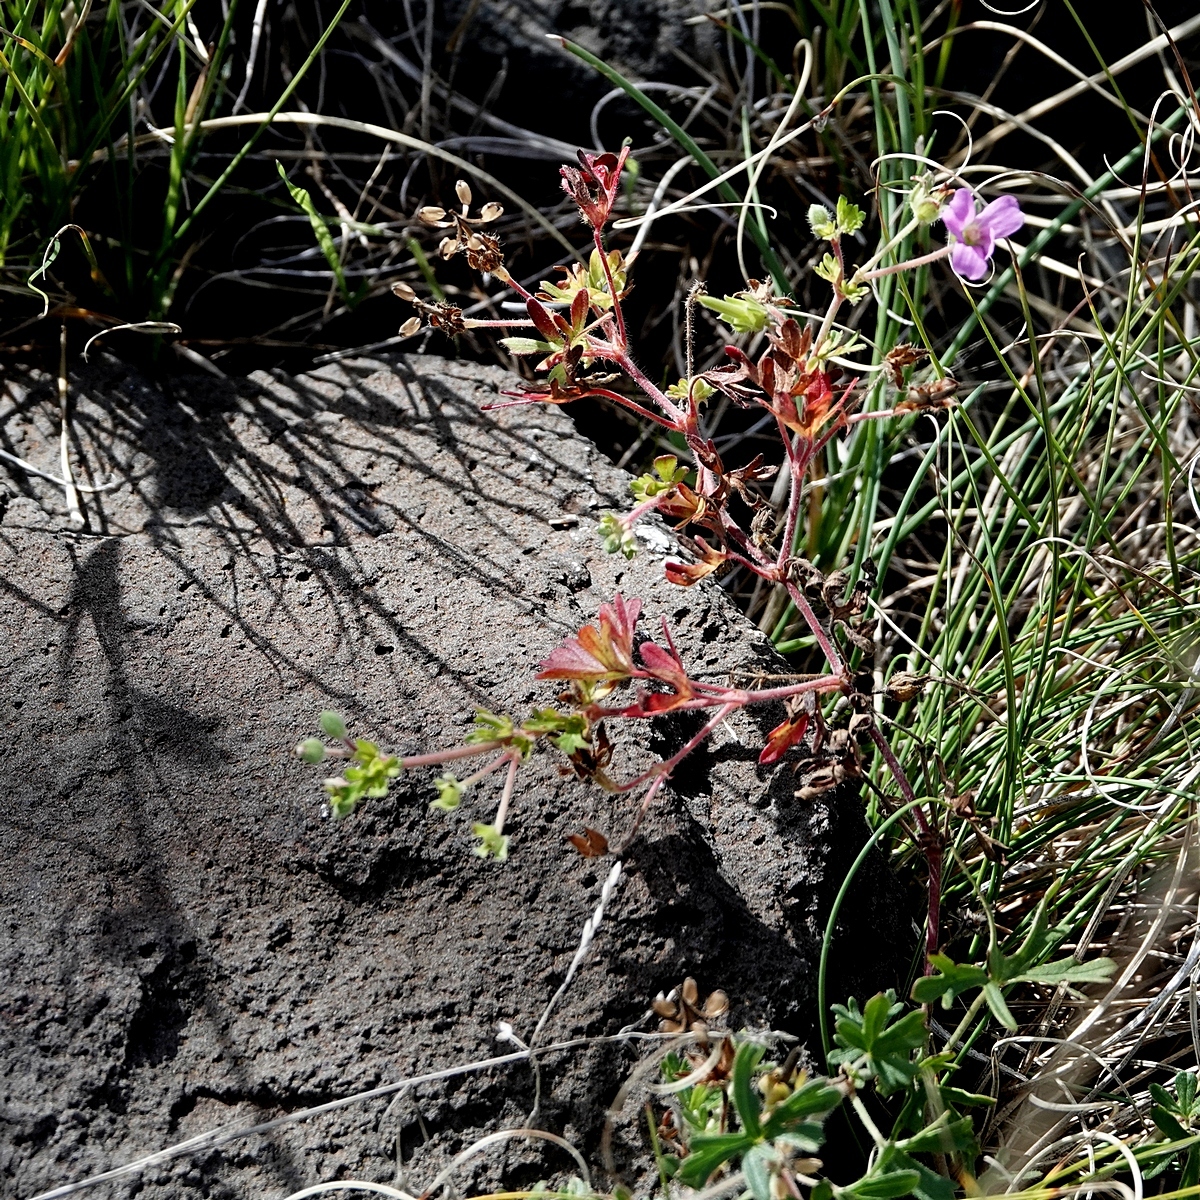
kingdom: Plantae
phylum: Tracheophyta
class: Magnoliopsida
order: Geraniales
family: Geraniaceae
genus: Geranium
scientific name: Geranium solanderi
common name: Solander's geranium
